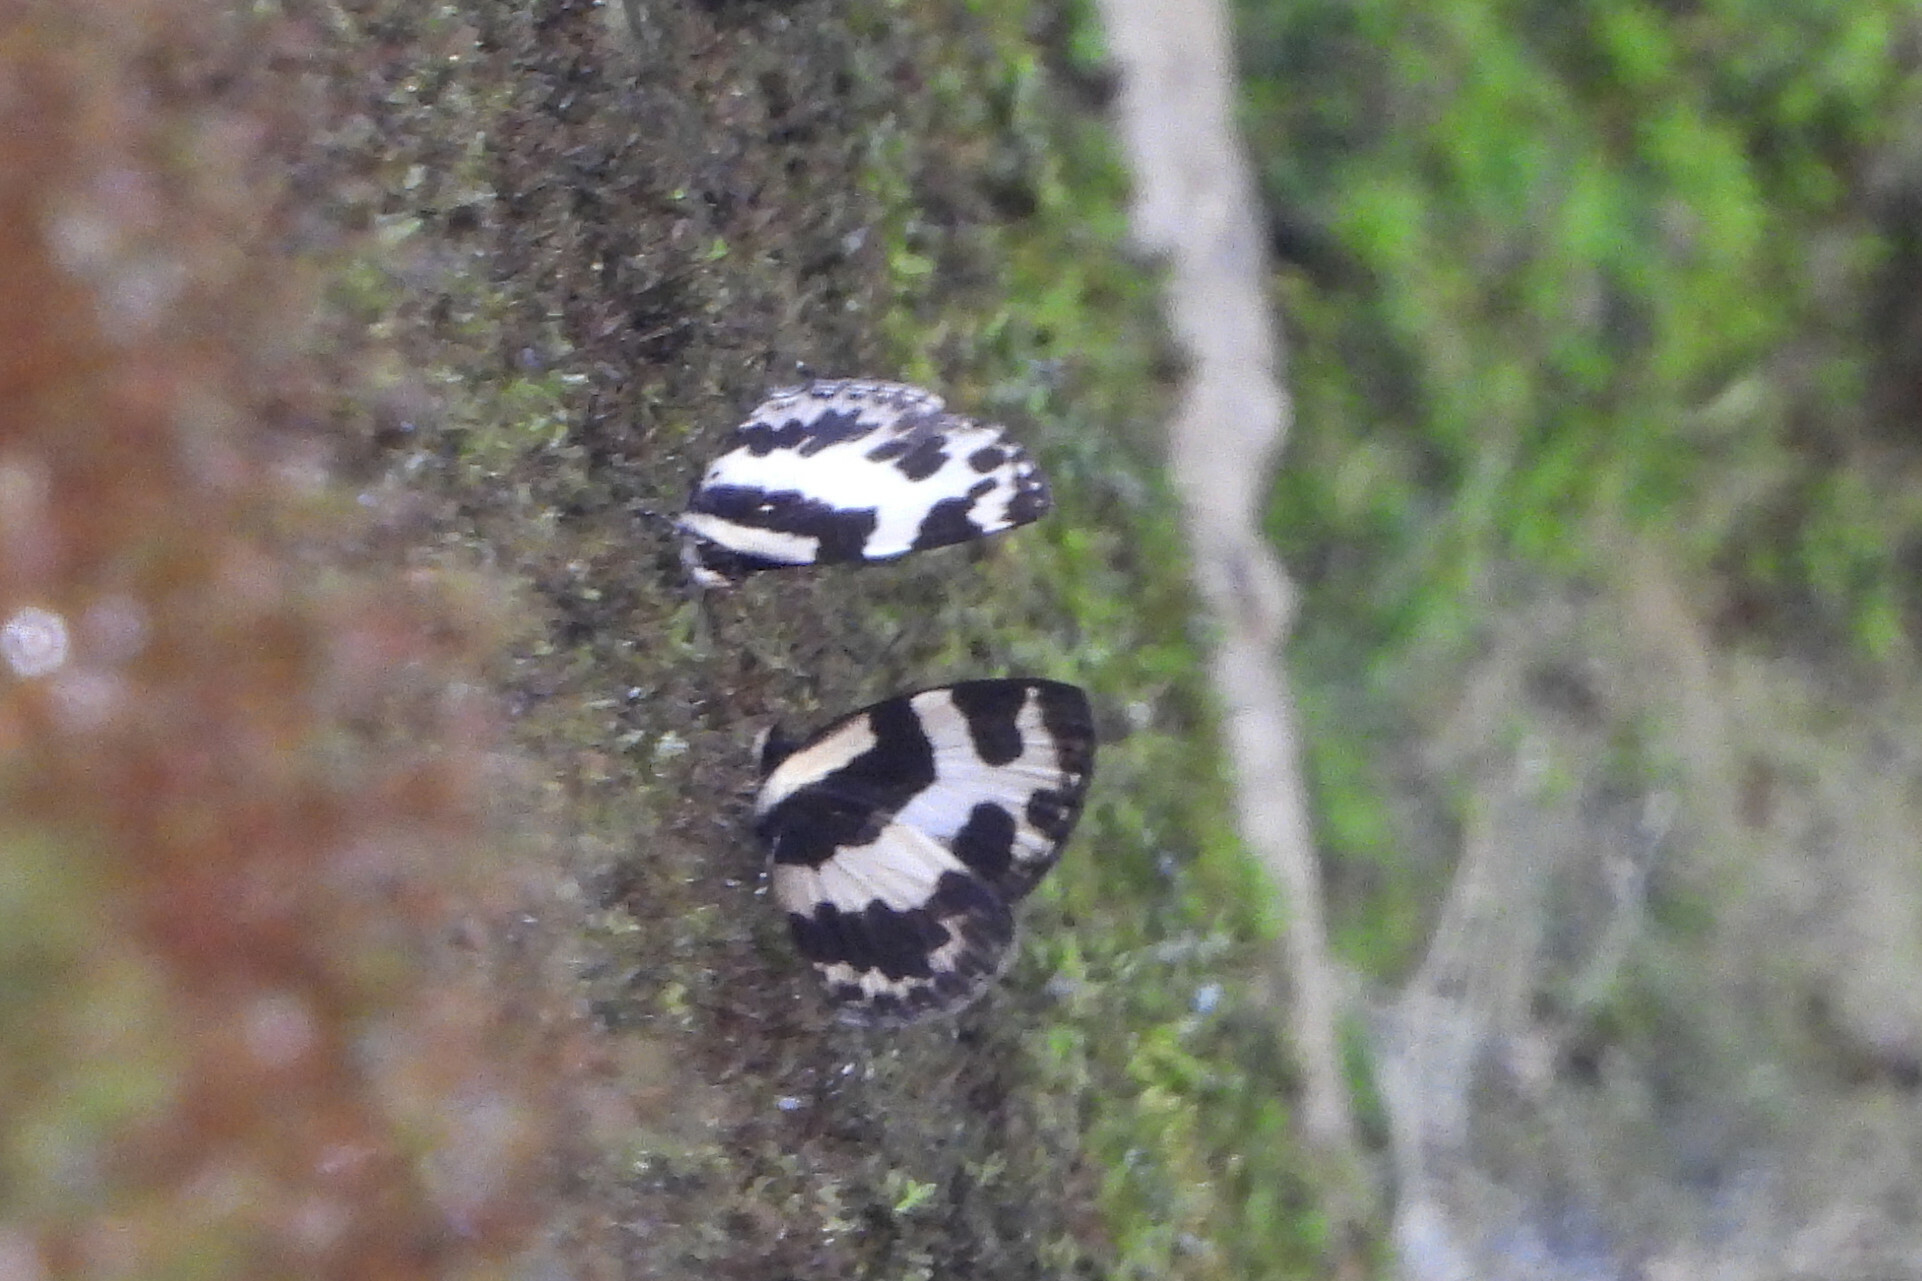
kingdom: Animalia
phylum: Arthropoda
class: Insecta
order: Lepidoptera
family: Lycaenidae
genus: Caleta
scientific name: Caleta elna
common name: Elbowed pierrot
